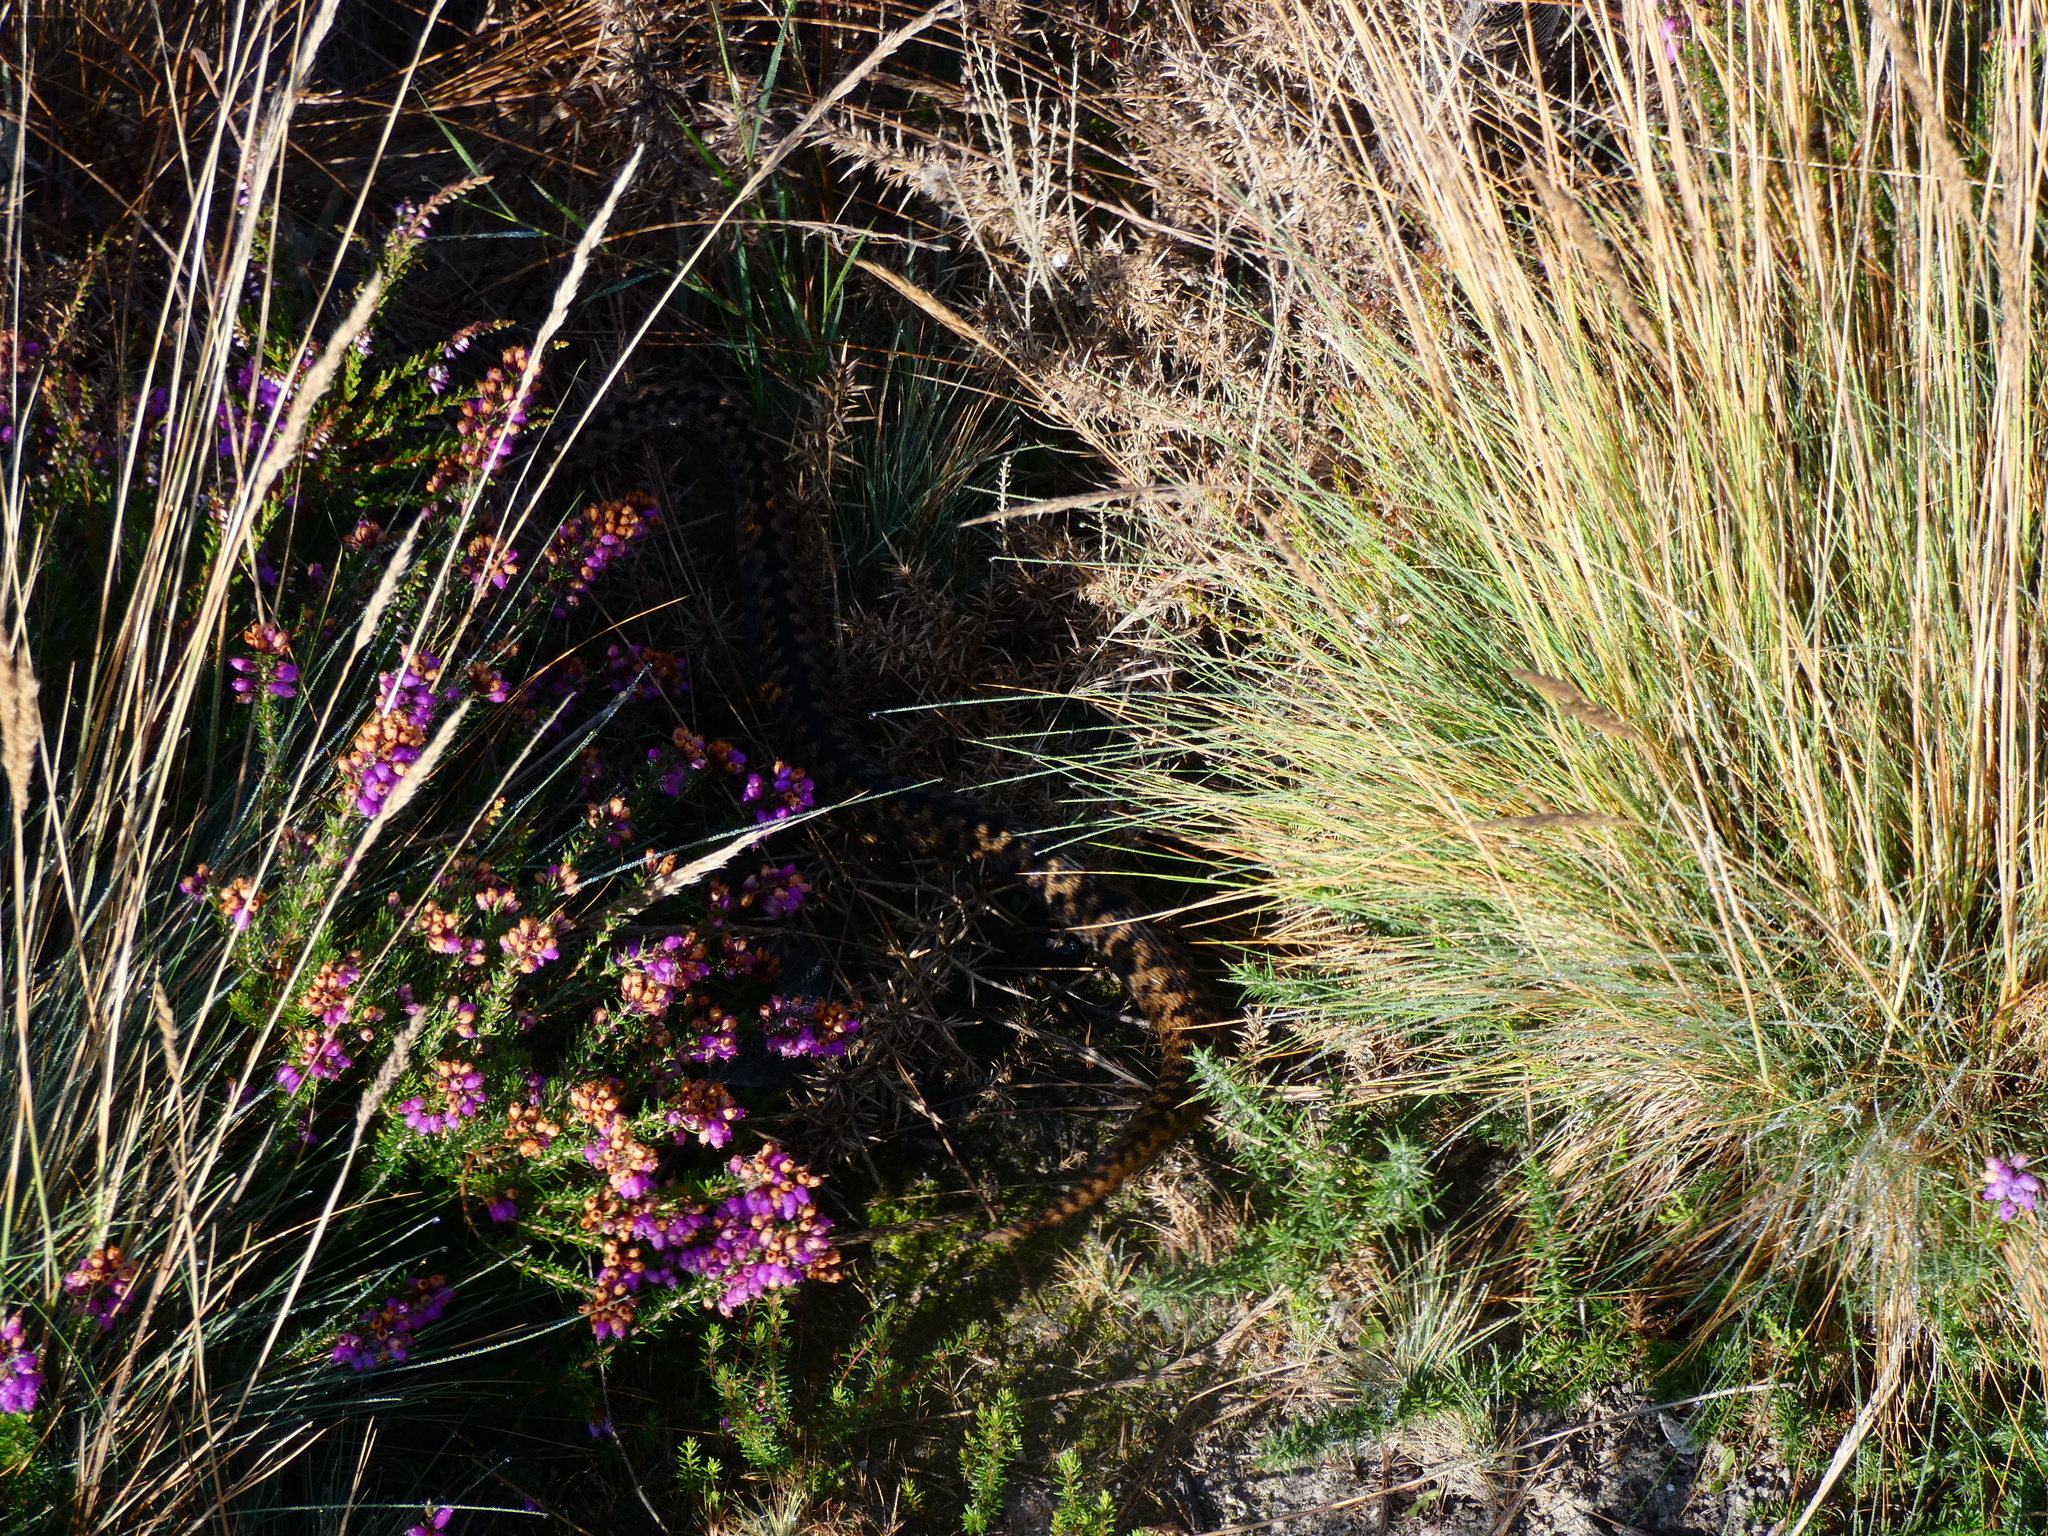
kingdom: Animalia
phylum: Chordata
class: Squamata
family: Viperidae
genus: Vipera
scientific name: Vipera berus
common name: Adder
